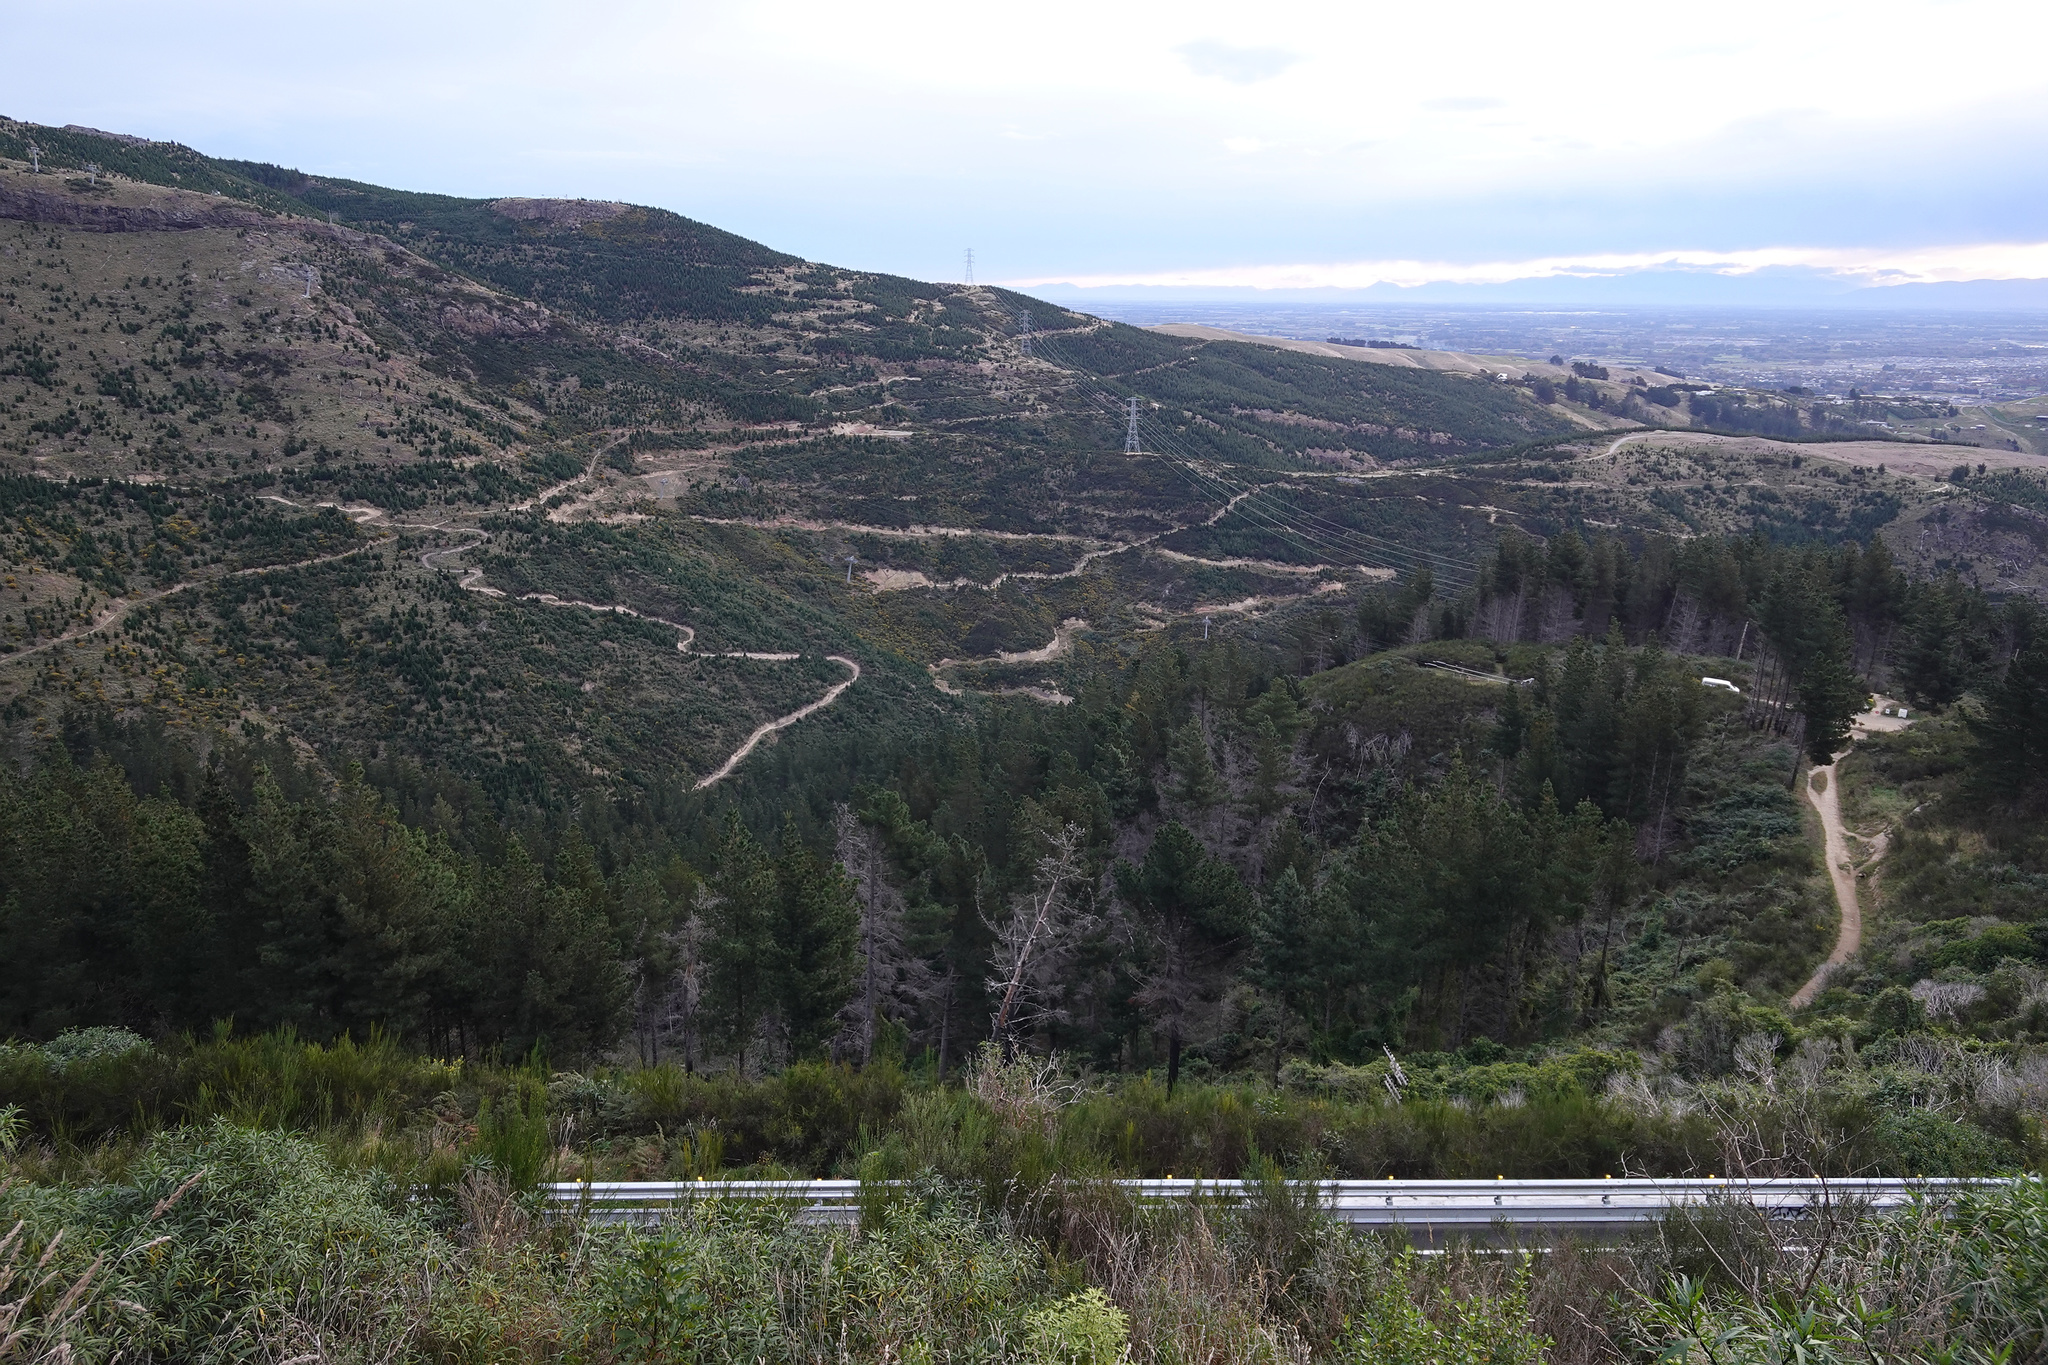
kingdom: Plantae
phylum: Tracheophyta
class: Pinopsida
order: Pinales
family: Pinaceae
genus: Pinus
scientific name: Pinus radiata
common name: Monterey pine
